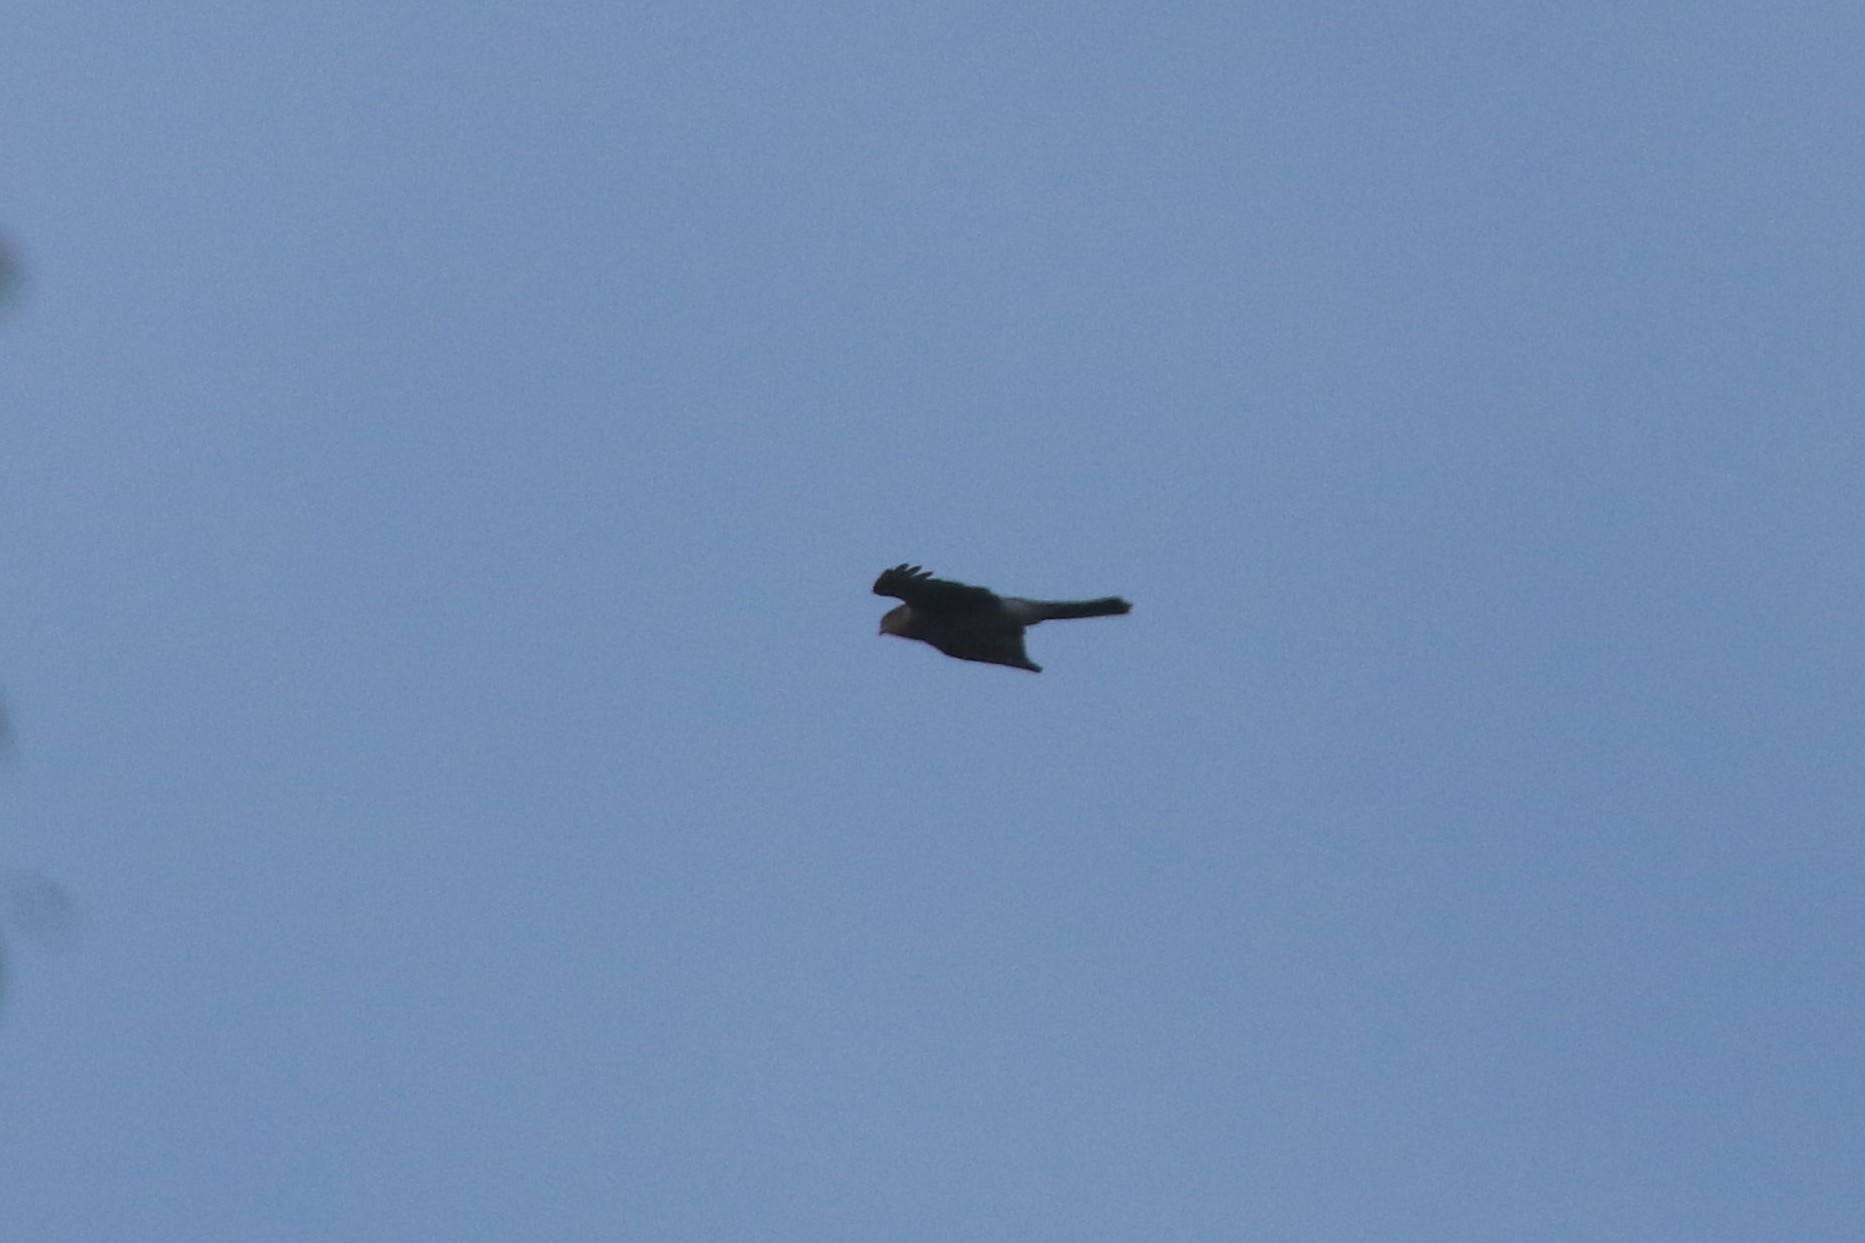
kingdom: Animalia
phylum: Chordata
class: Aves
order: Accipitriformes
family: Accipitridae
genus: Accipiter
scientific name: Accipiter nisus
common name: Eurasian sparrowhawk
